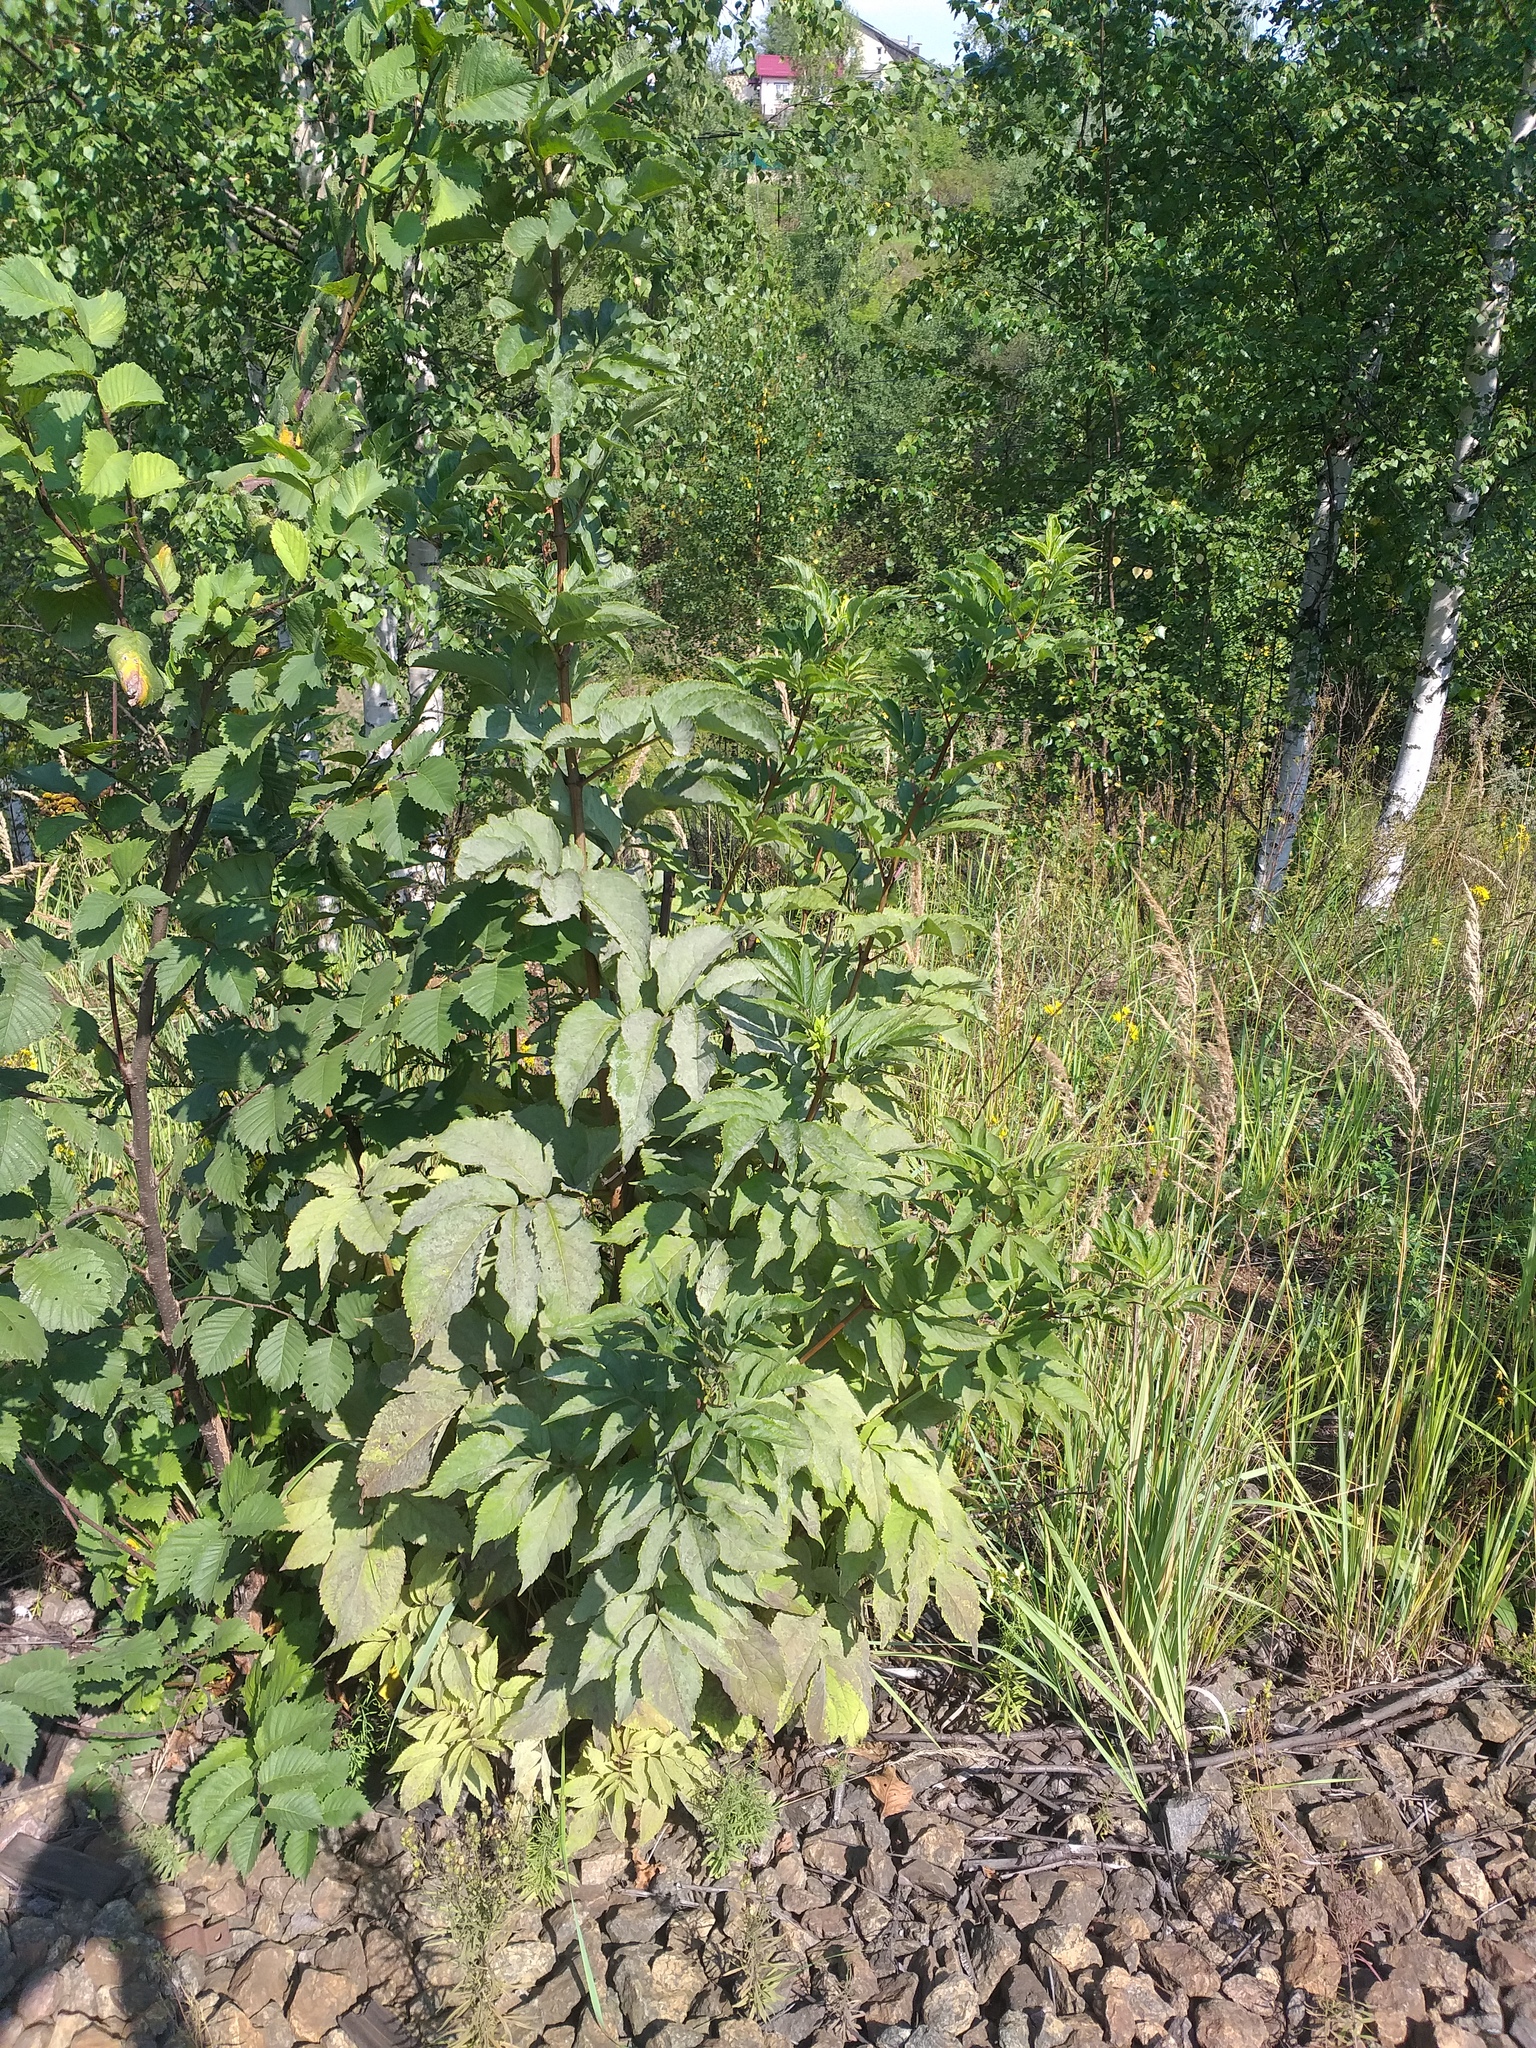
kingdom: Plantae
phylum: Tracheophyta
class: Magnoliopsida
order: Dipsacales
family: Viburnaceae
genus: Sambucus
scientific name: Sambucus racemosa
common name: Red-berried elder
